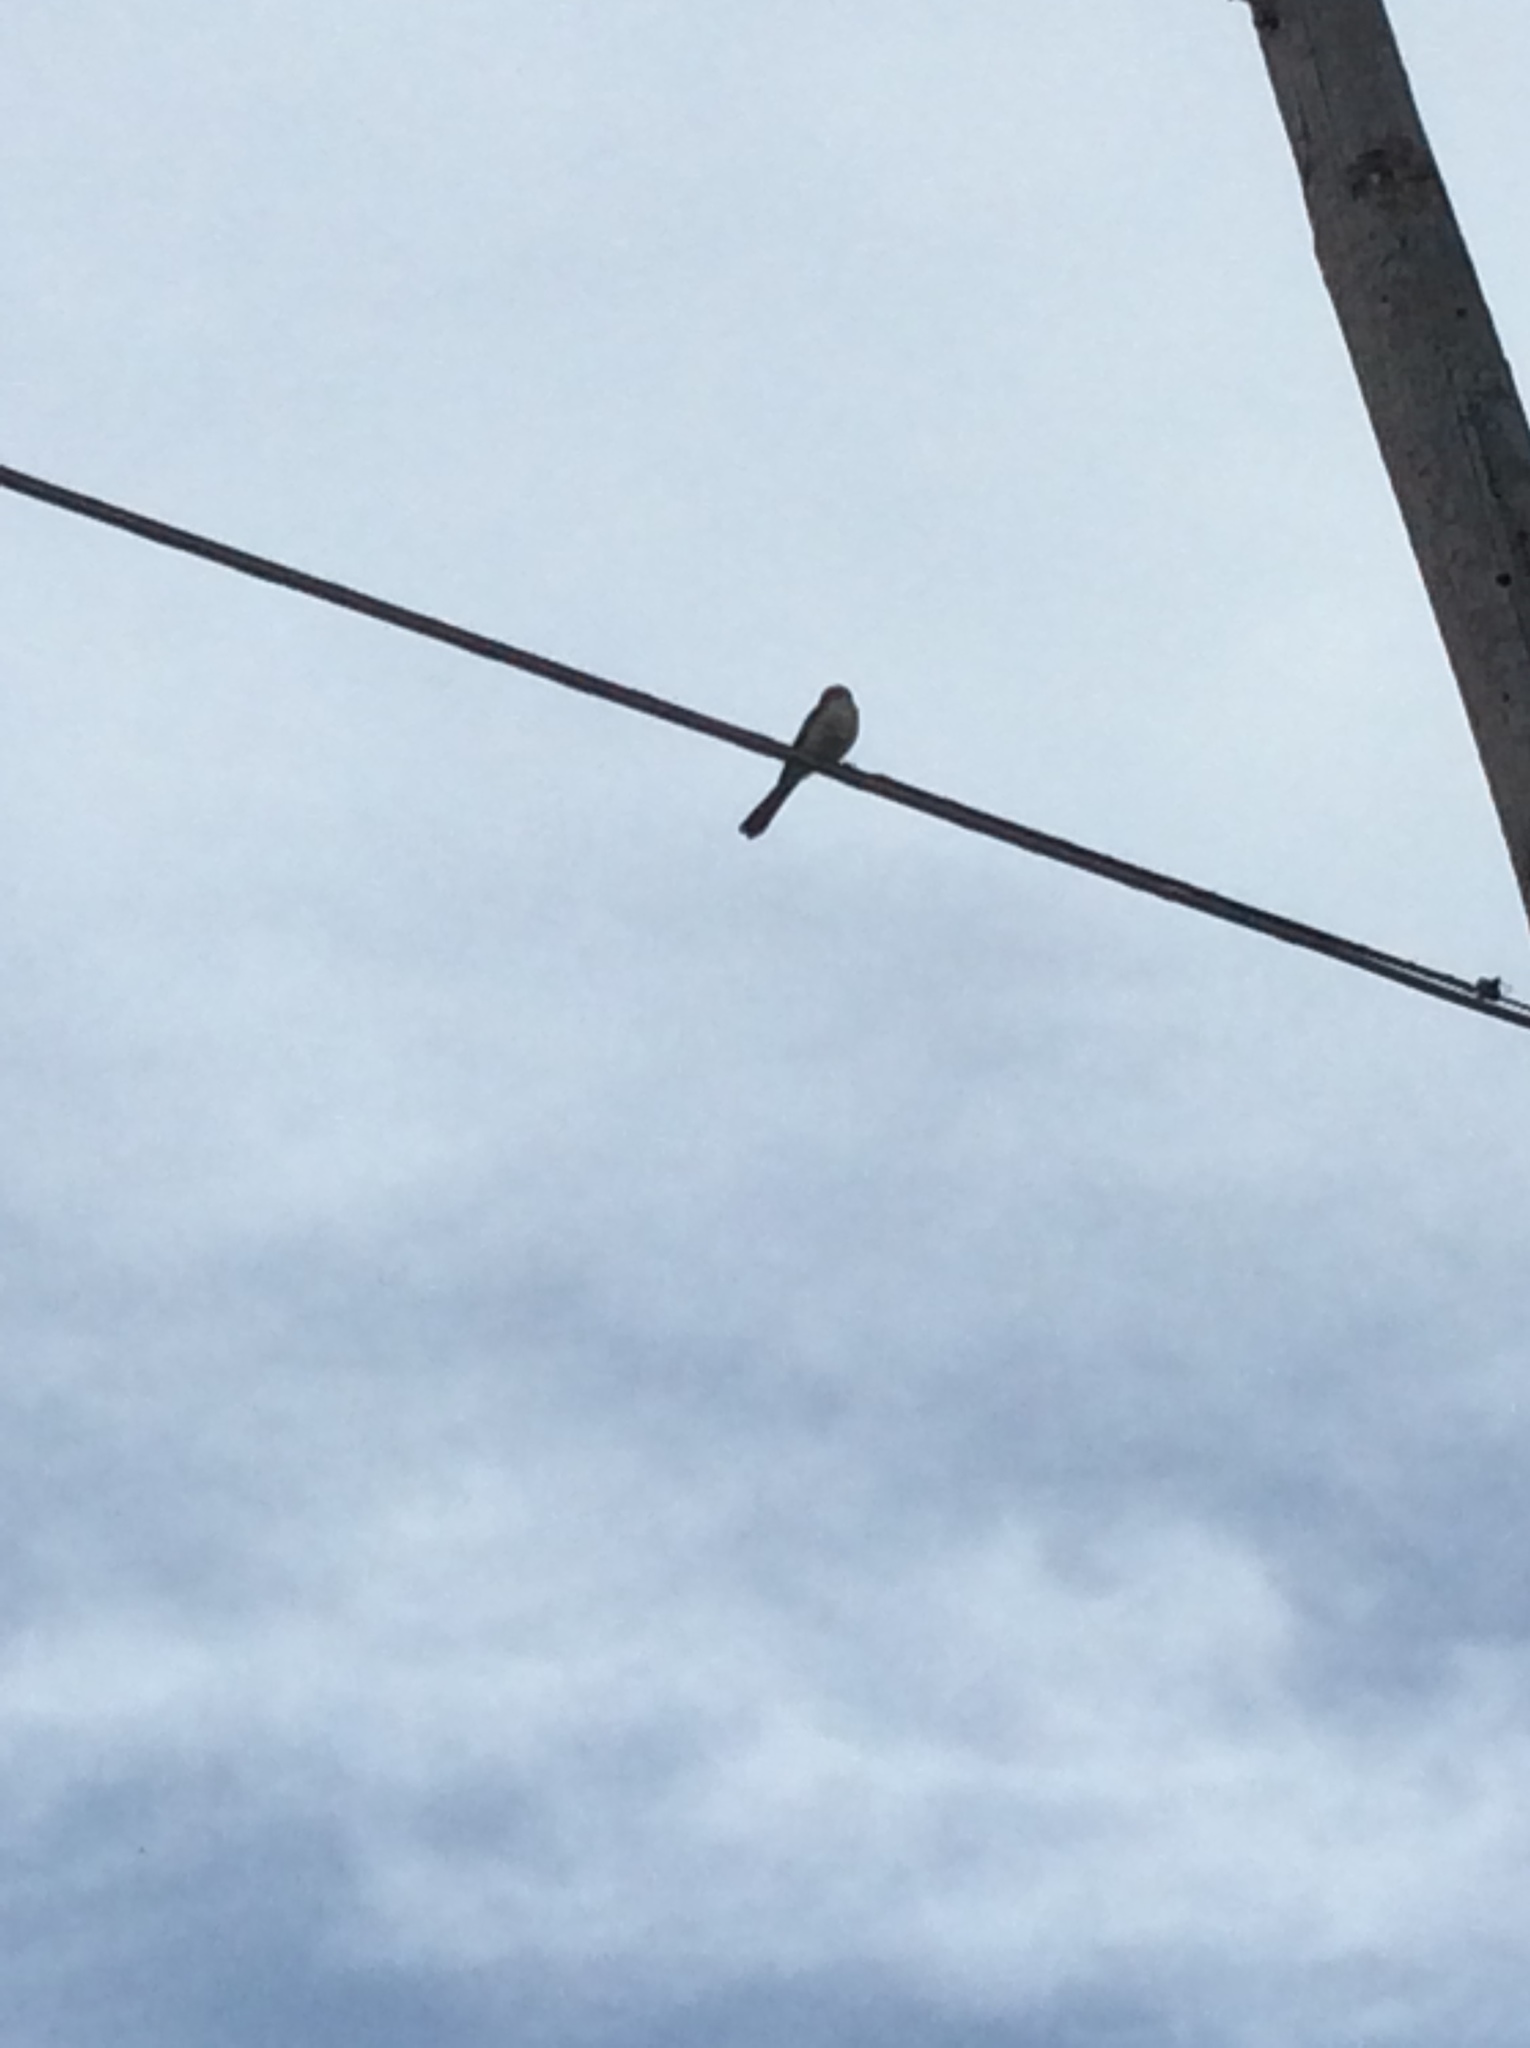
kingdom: Animalia
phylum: Chordata
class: Aves
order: Passeriformes
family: Tyrannidae
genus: Tyrannus
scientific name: Tyrannus forficatus
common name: Scissor-tailed flycatcher
